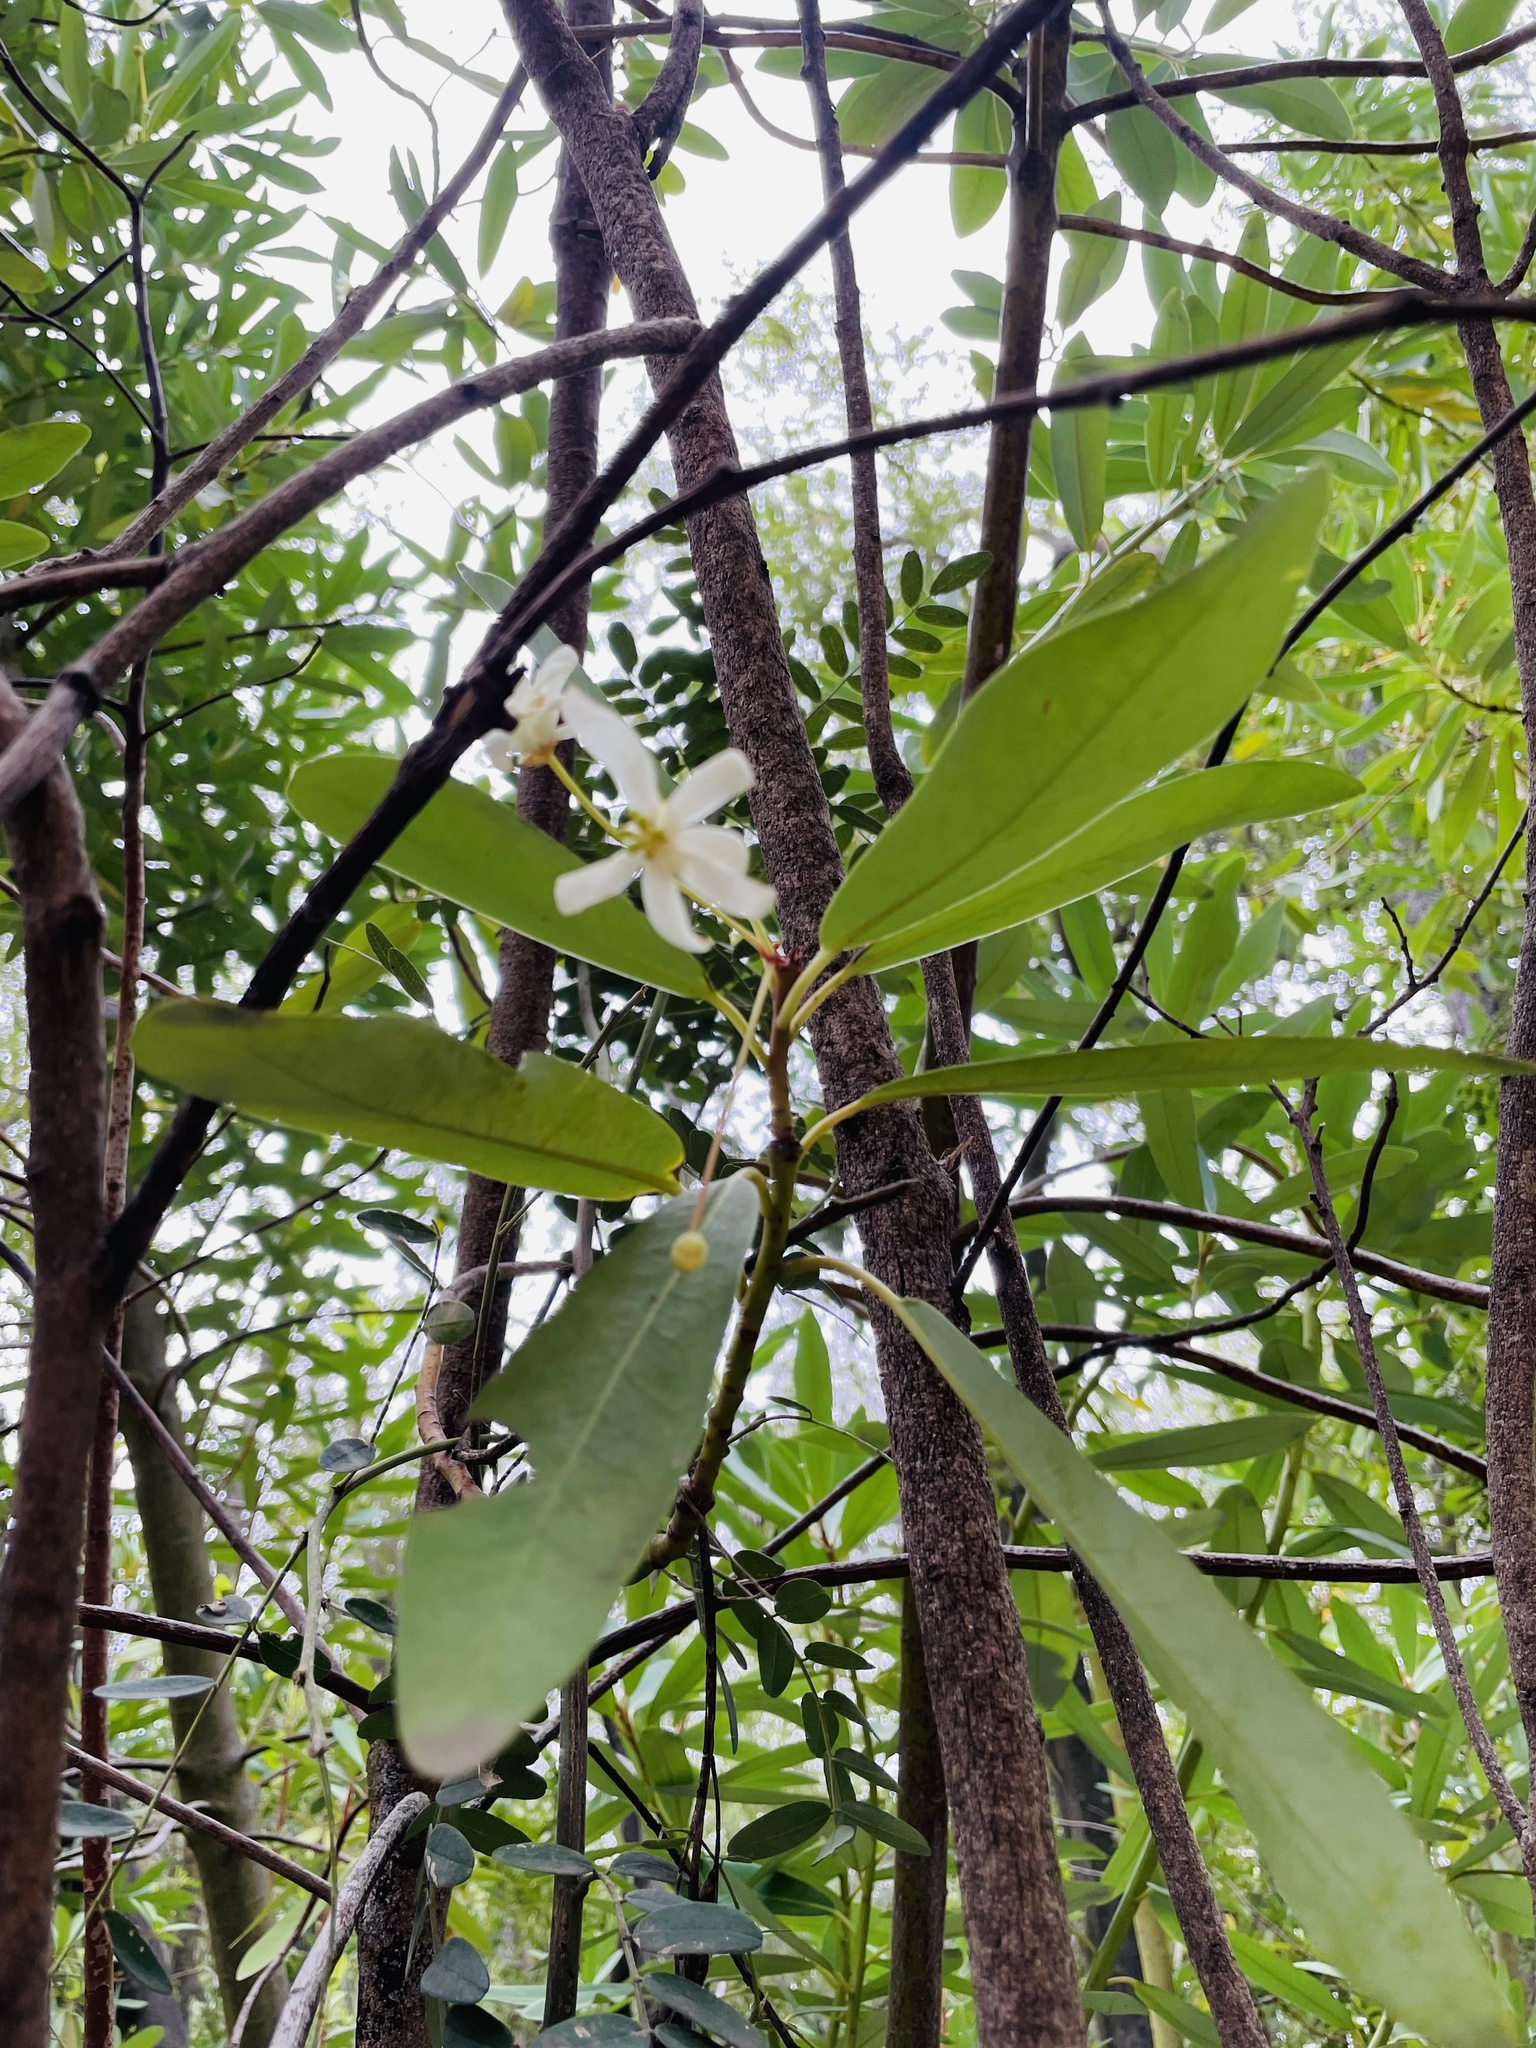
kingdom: Plantae
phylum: Tracheophyta
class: Magnoliopsida
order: Canellales
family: Winteraceae
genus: Drimys
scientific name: Drimys winteri
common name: Winter's-bark
